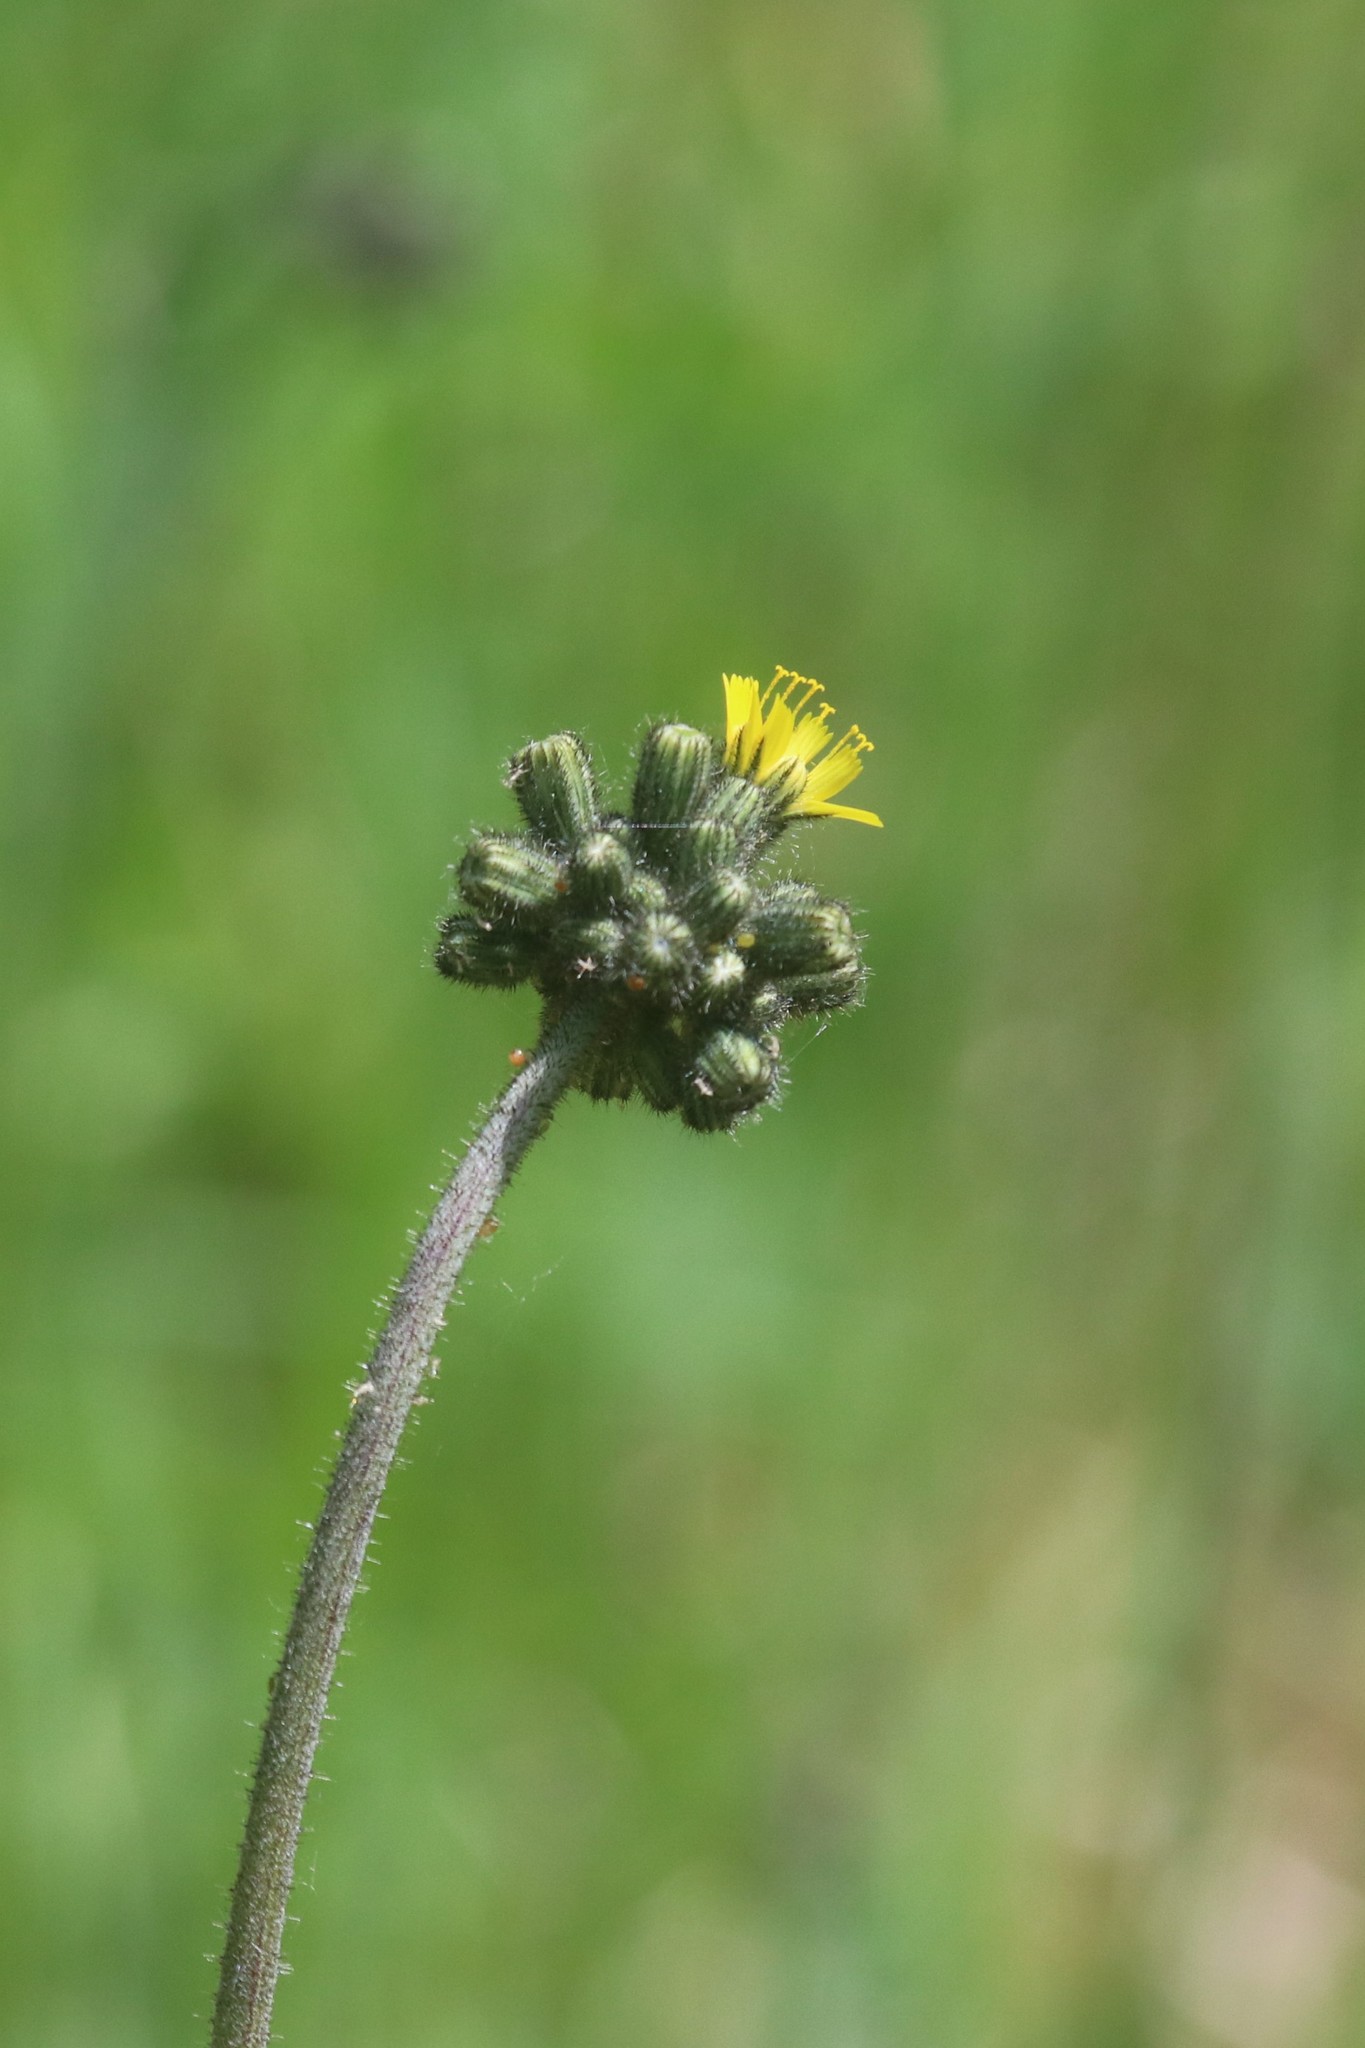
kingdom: Plantae
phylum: Tracheophyta
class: Magnoliopsida
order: Asterales
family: Asteraceae
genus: Pilosella
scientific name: Pilosella
